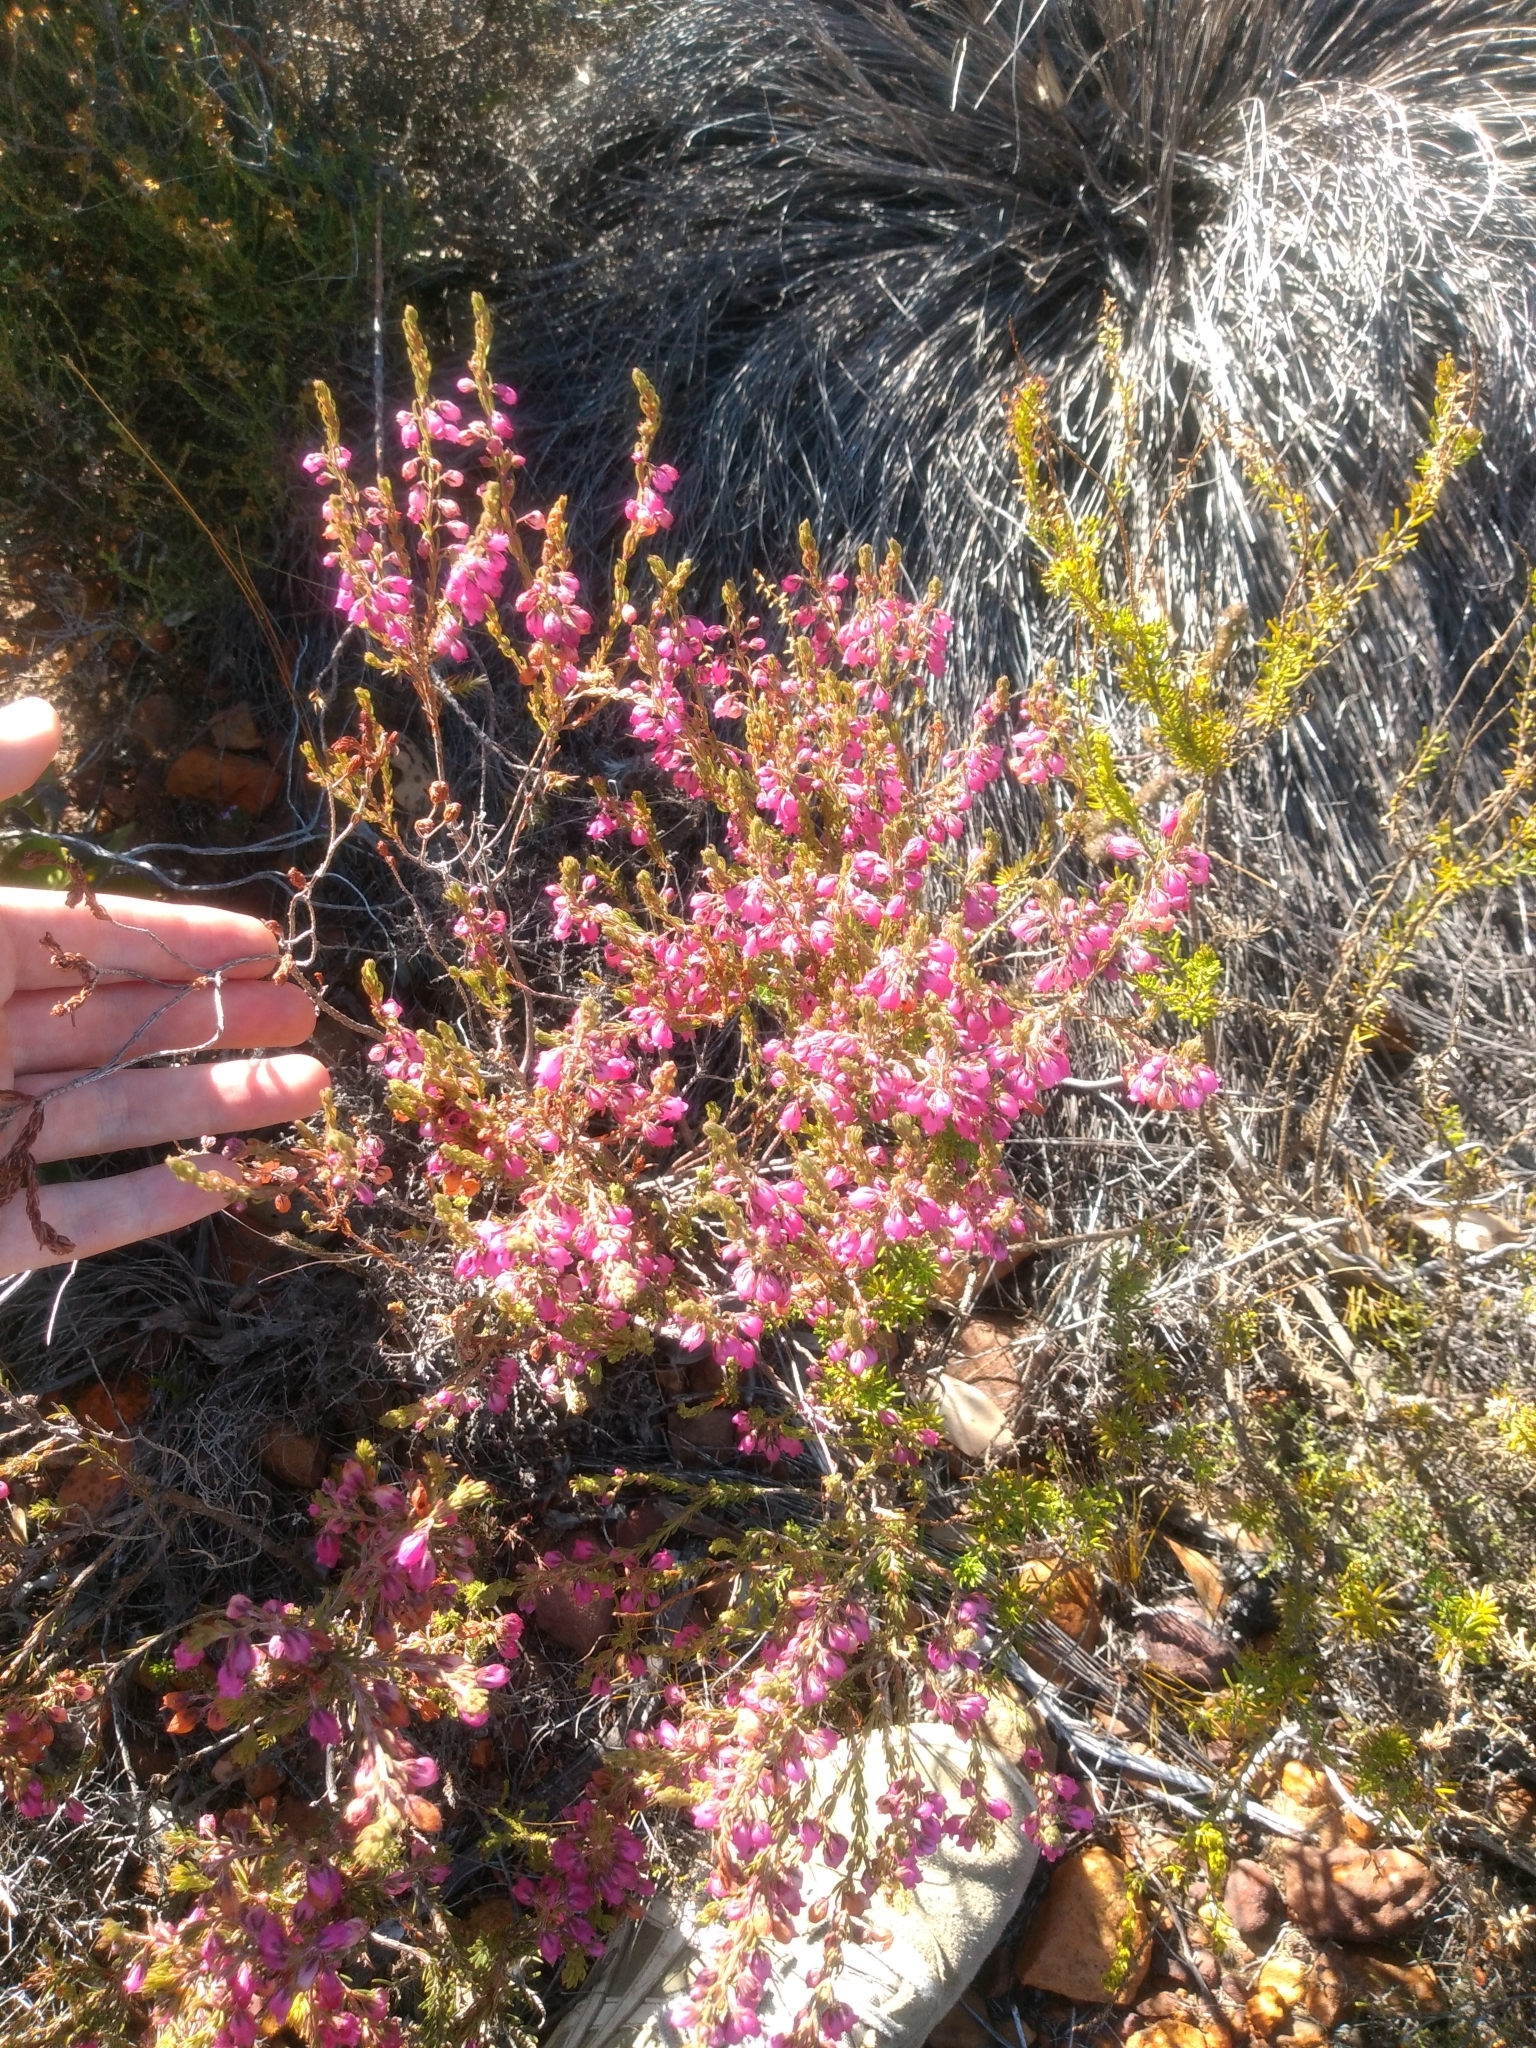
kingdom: Plantae
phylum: Tracheophyta
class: Magnoliopsida
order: Ericales
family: Ericaceae
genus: Erica
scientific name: Erica viscaria
